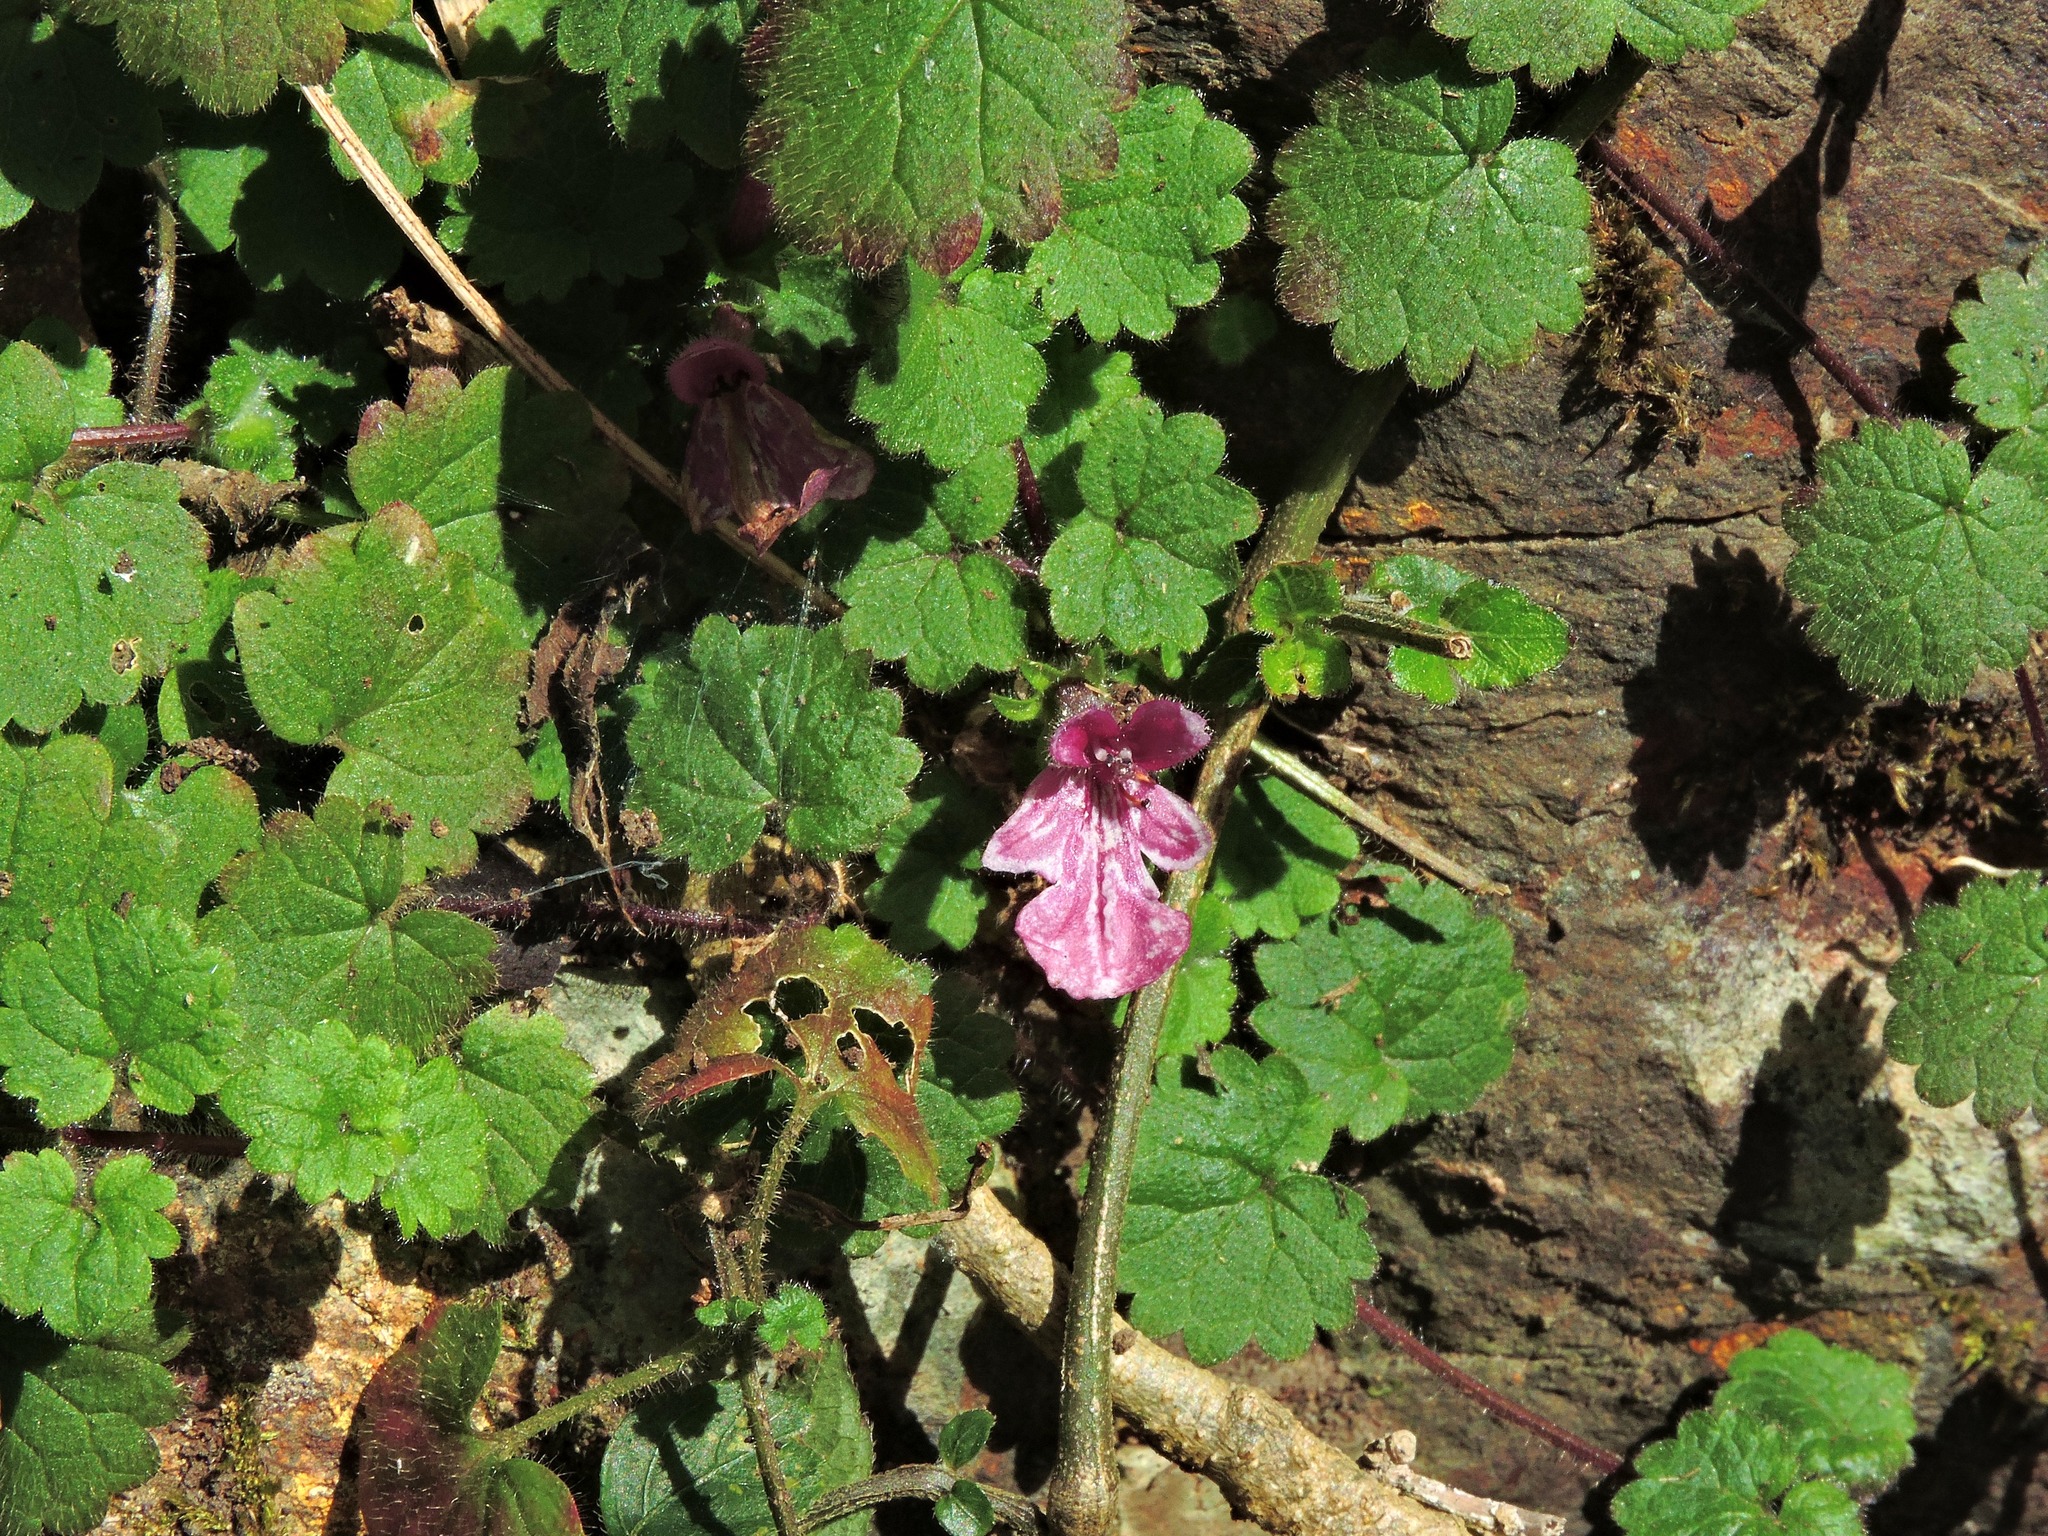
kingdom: Plantae
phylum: Tracheophyta
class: Magnoliopsida
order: Lamiales
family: Lamiaceae
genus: Suzukia
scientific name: Suzukia shikikunensis
